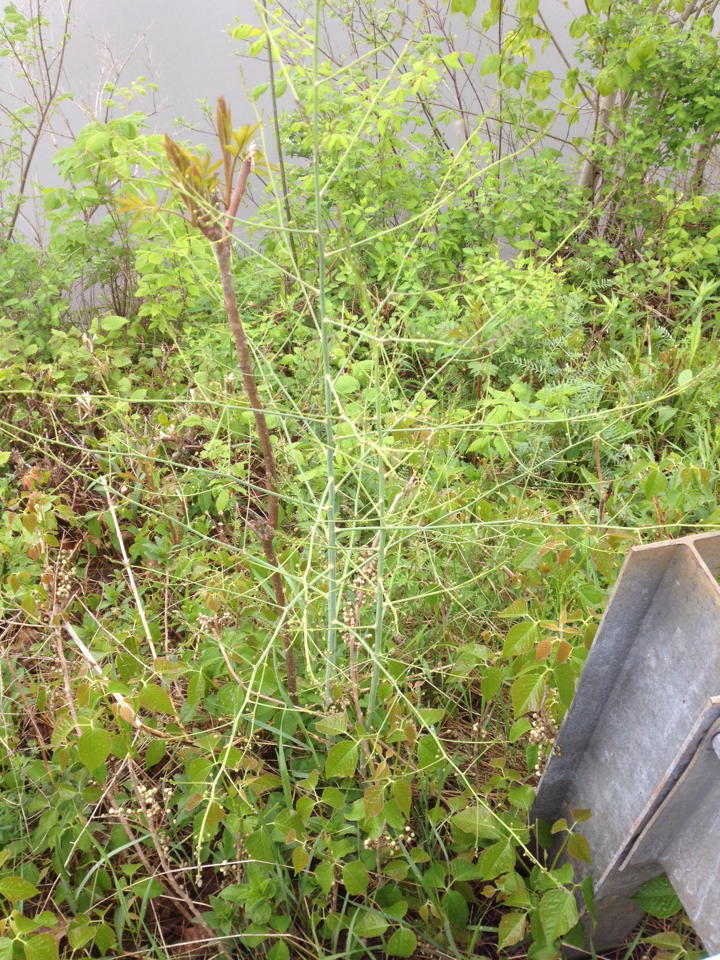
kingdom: Plantae
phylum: Tracheophyta
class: Liliopsida
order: Asparagales
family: Asparagaceae
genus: Asparagus
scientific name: Asparagus officinalis
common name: Garden asparagus
